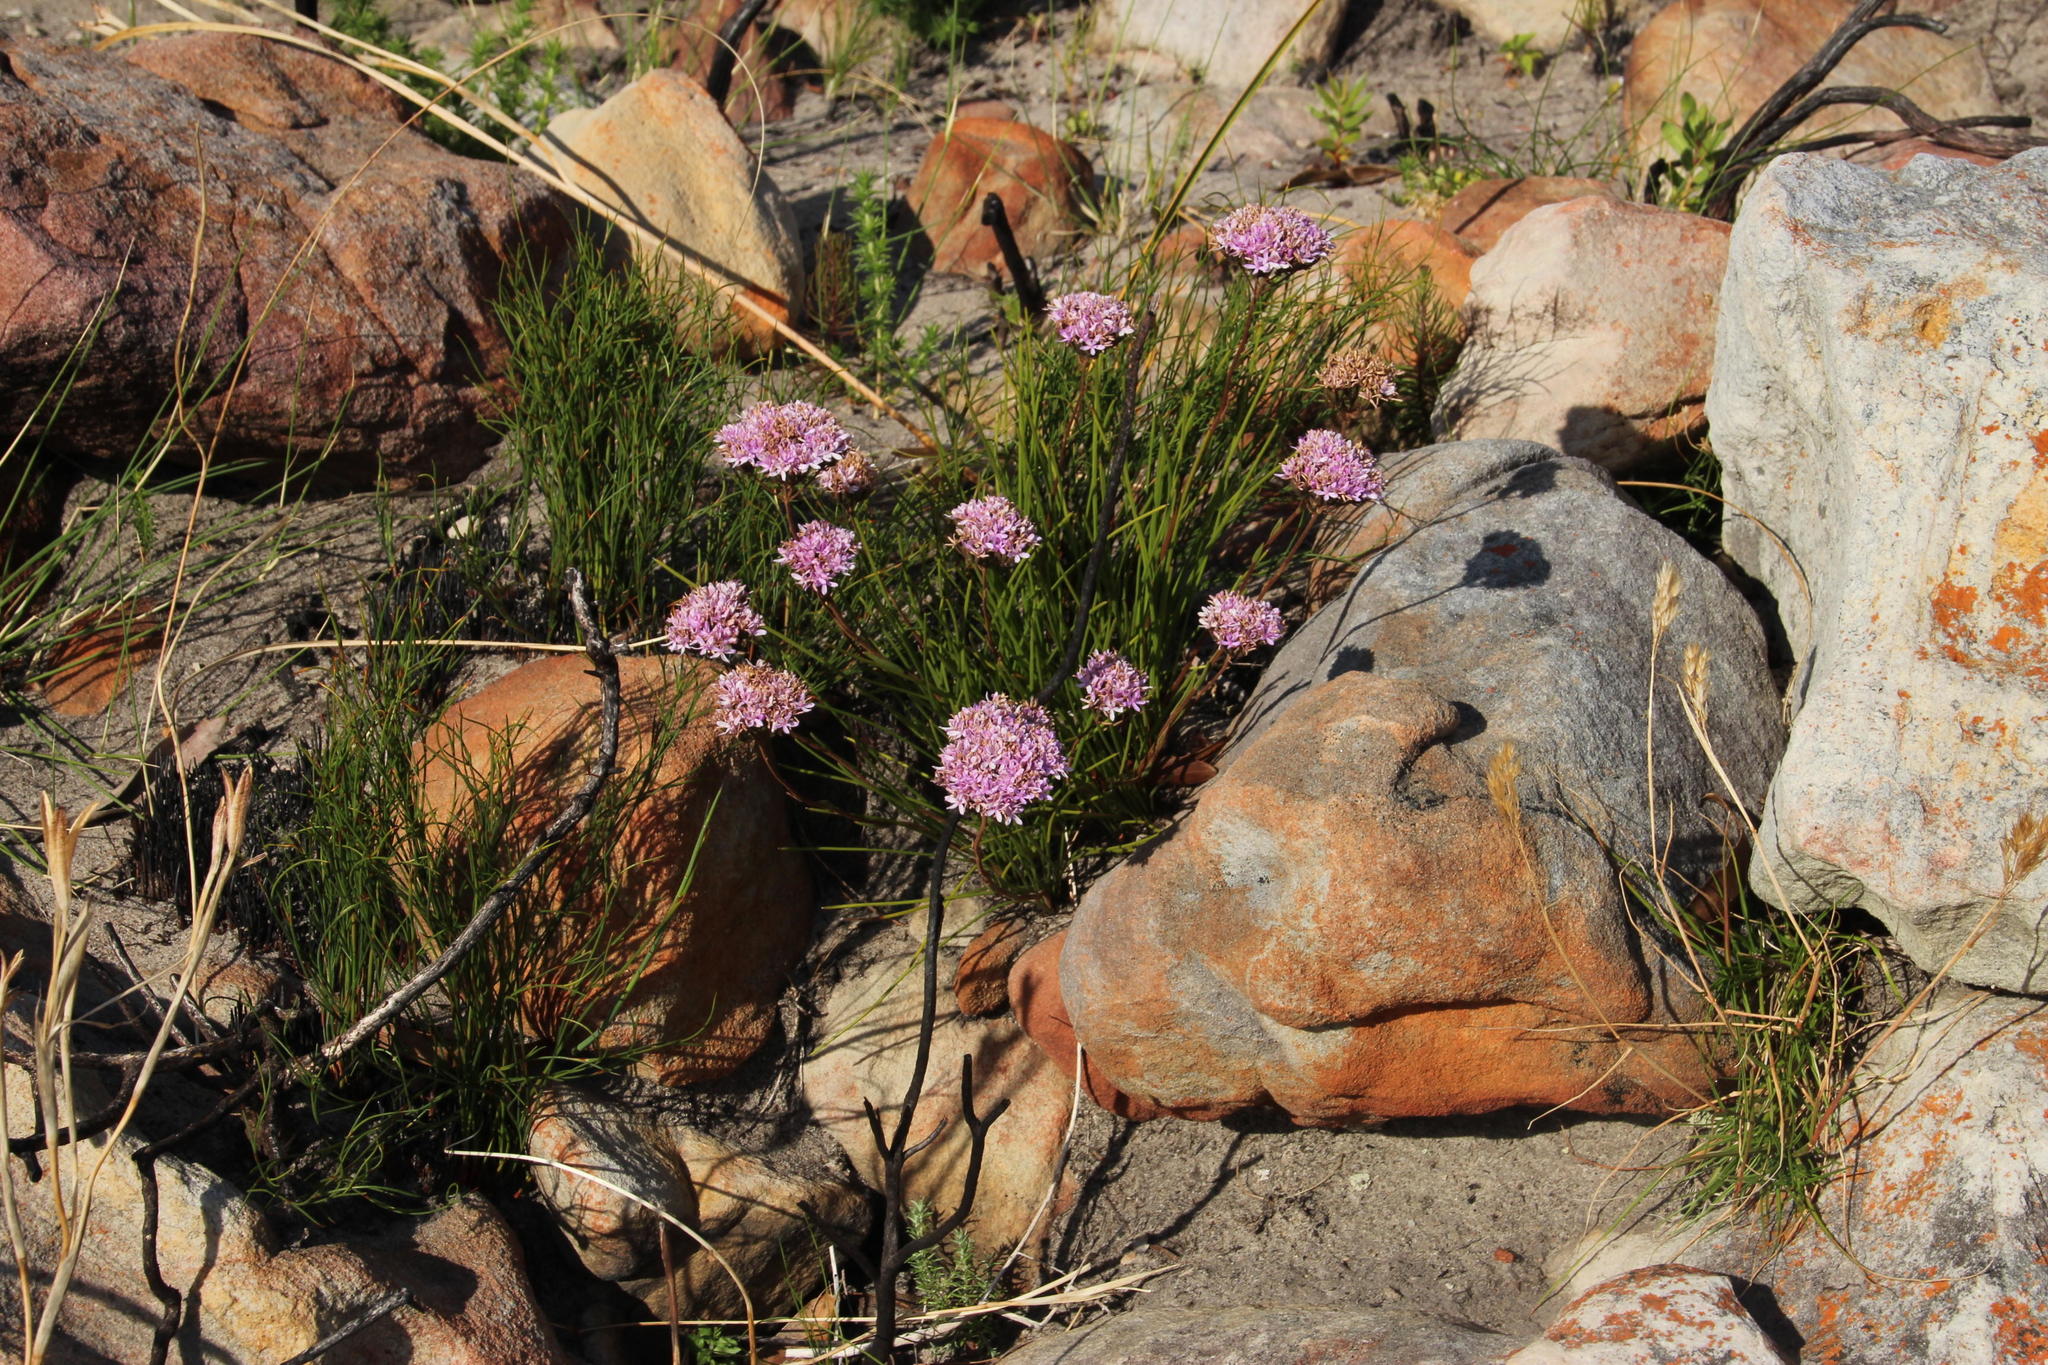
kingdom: Plantae
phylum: Tracheophyta
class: Magnoliopsida
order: Asterales
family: Asteraceae
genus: Corymbium
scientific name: Corymbium africanum
